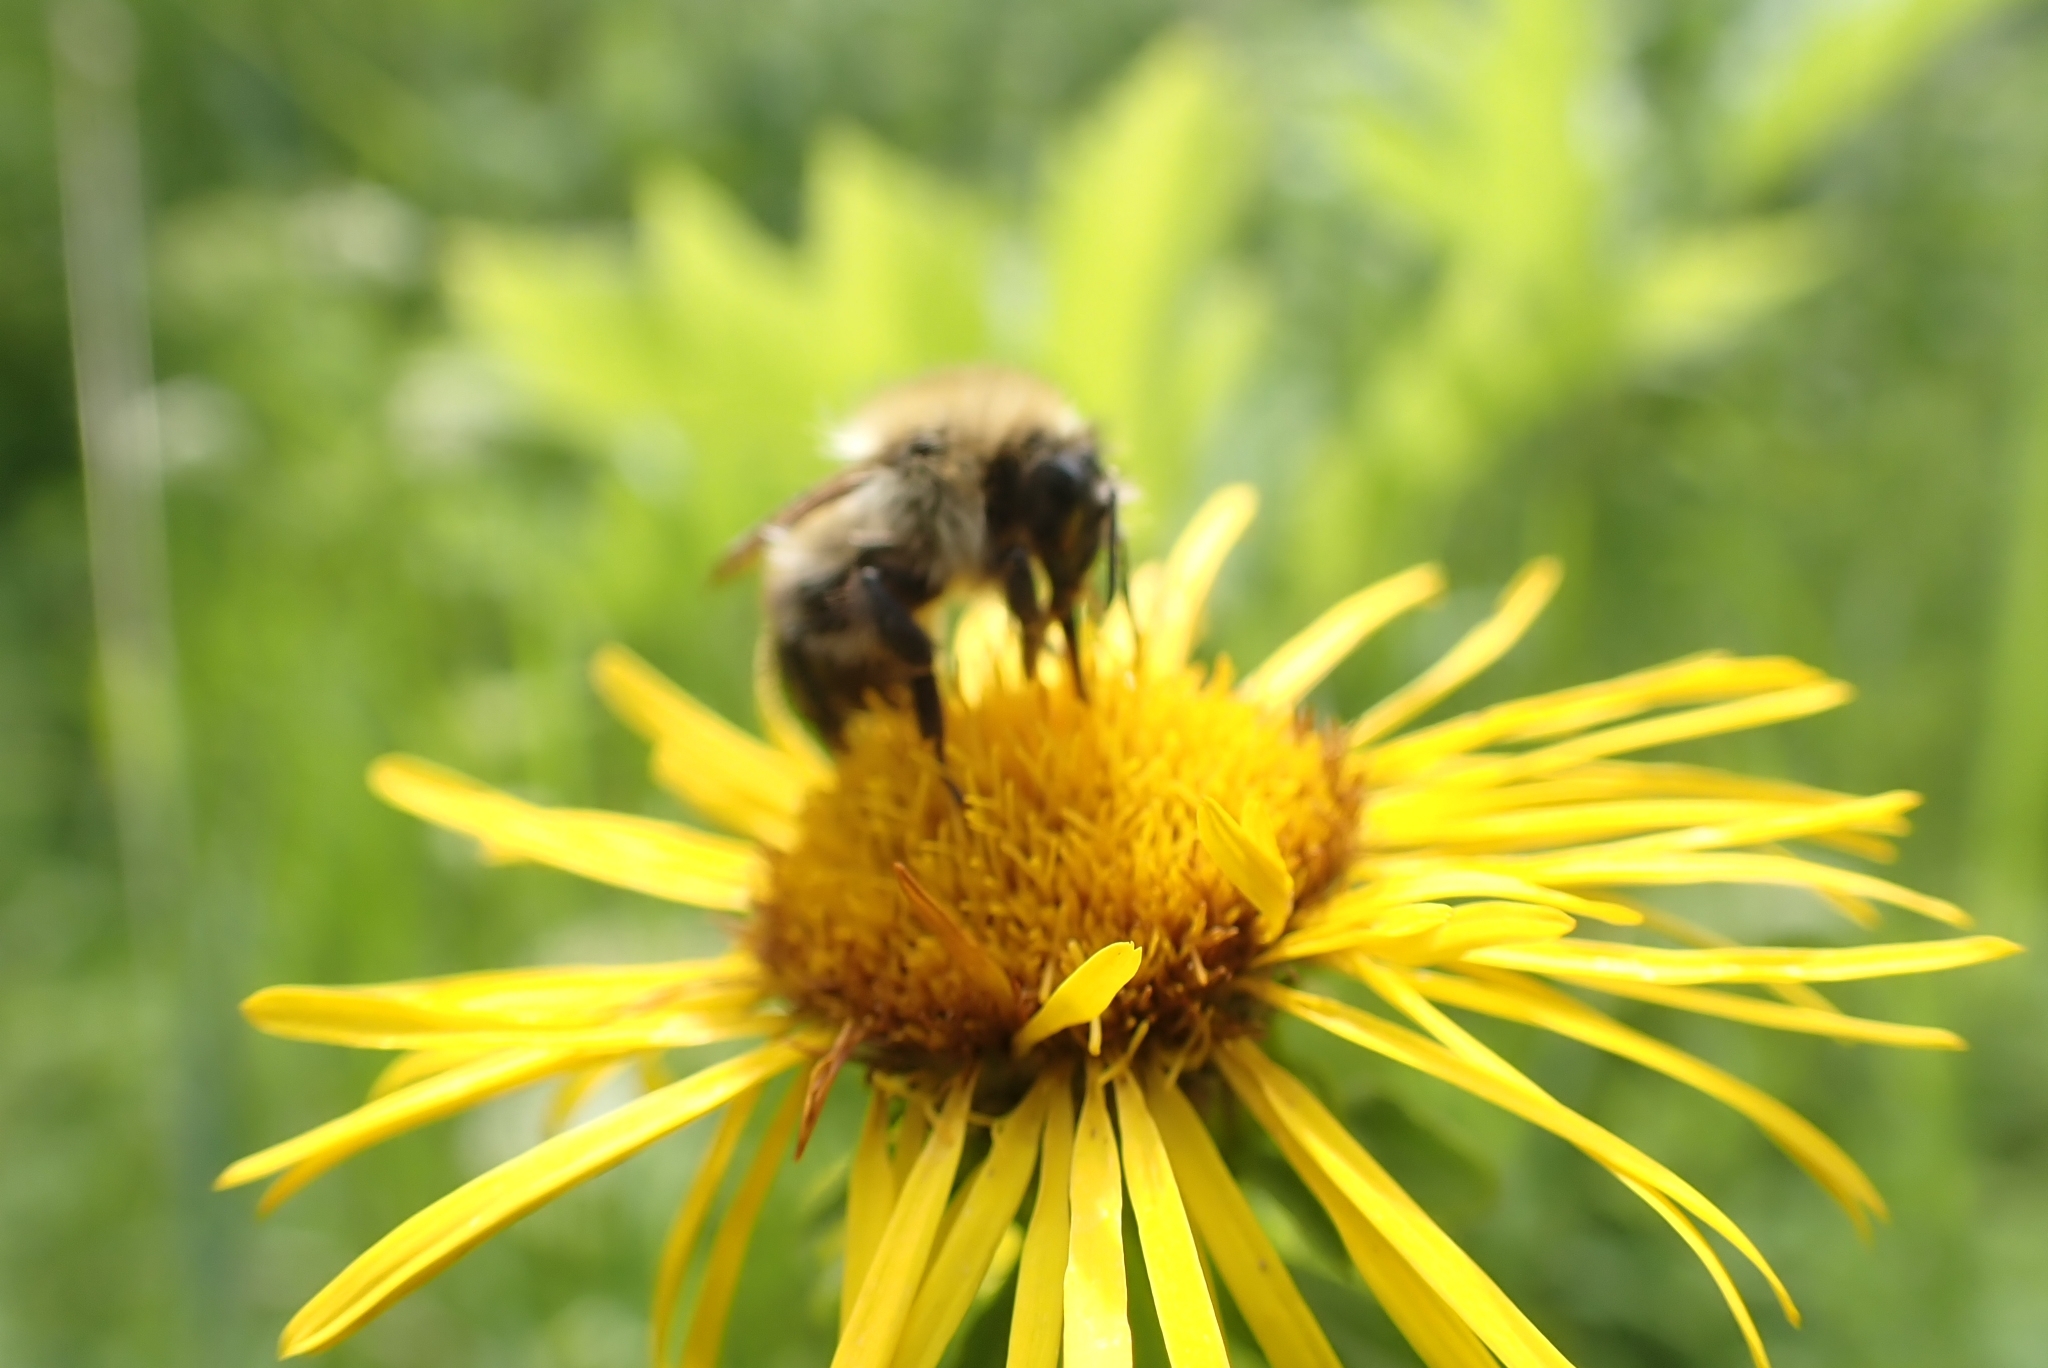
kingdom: Animalia
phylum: Arthropoda
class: Insecta
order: Hymenoptera
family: Apidae
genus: Bombus
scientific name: Bombus pascuorum
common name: Common carder bee
